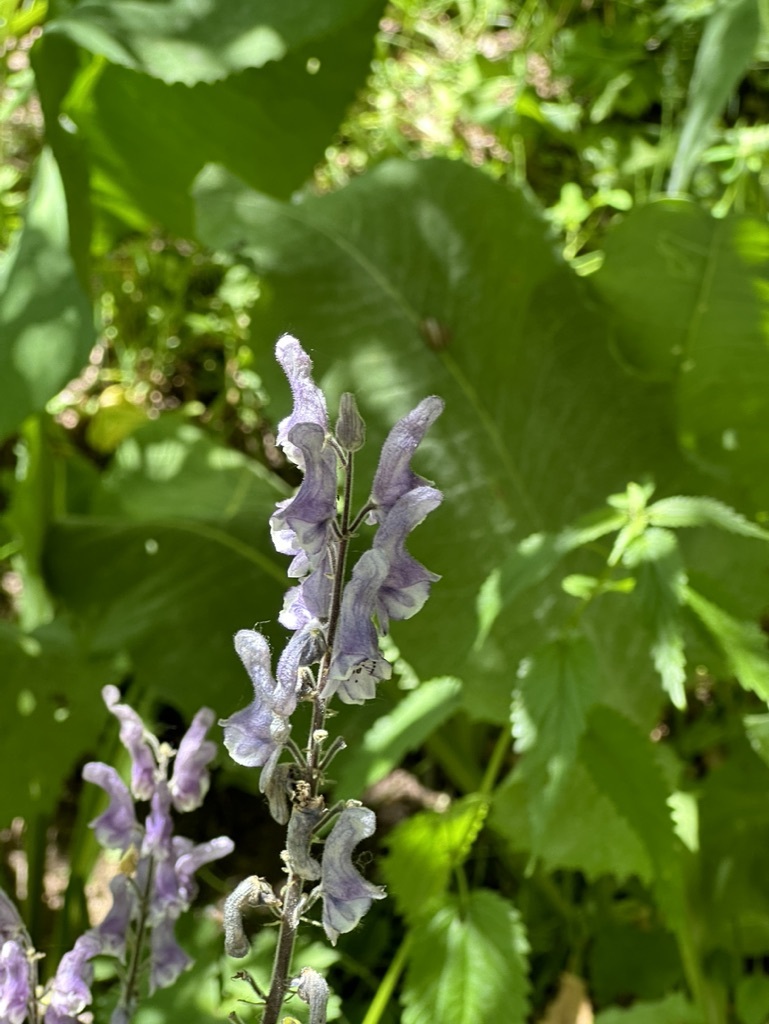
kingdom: Plantae
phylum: Tracheophyta
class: Magnoliopsida
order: Ranunculales
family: Ranunculaceae
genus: Aconitum
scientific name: Aconitum septentrionale
